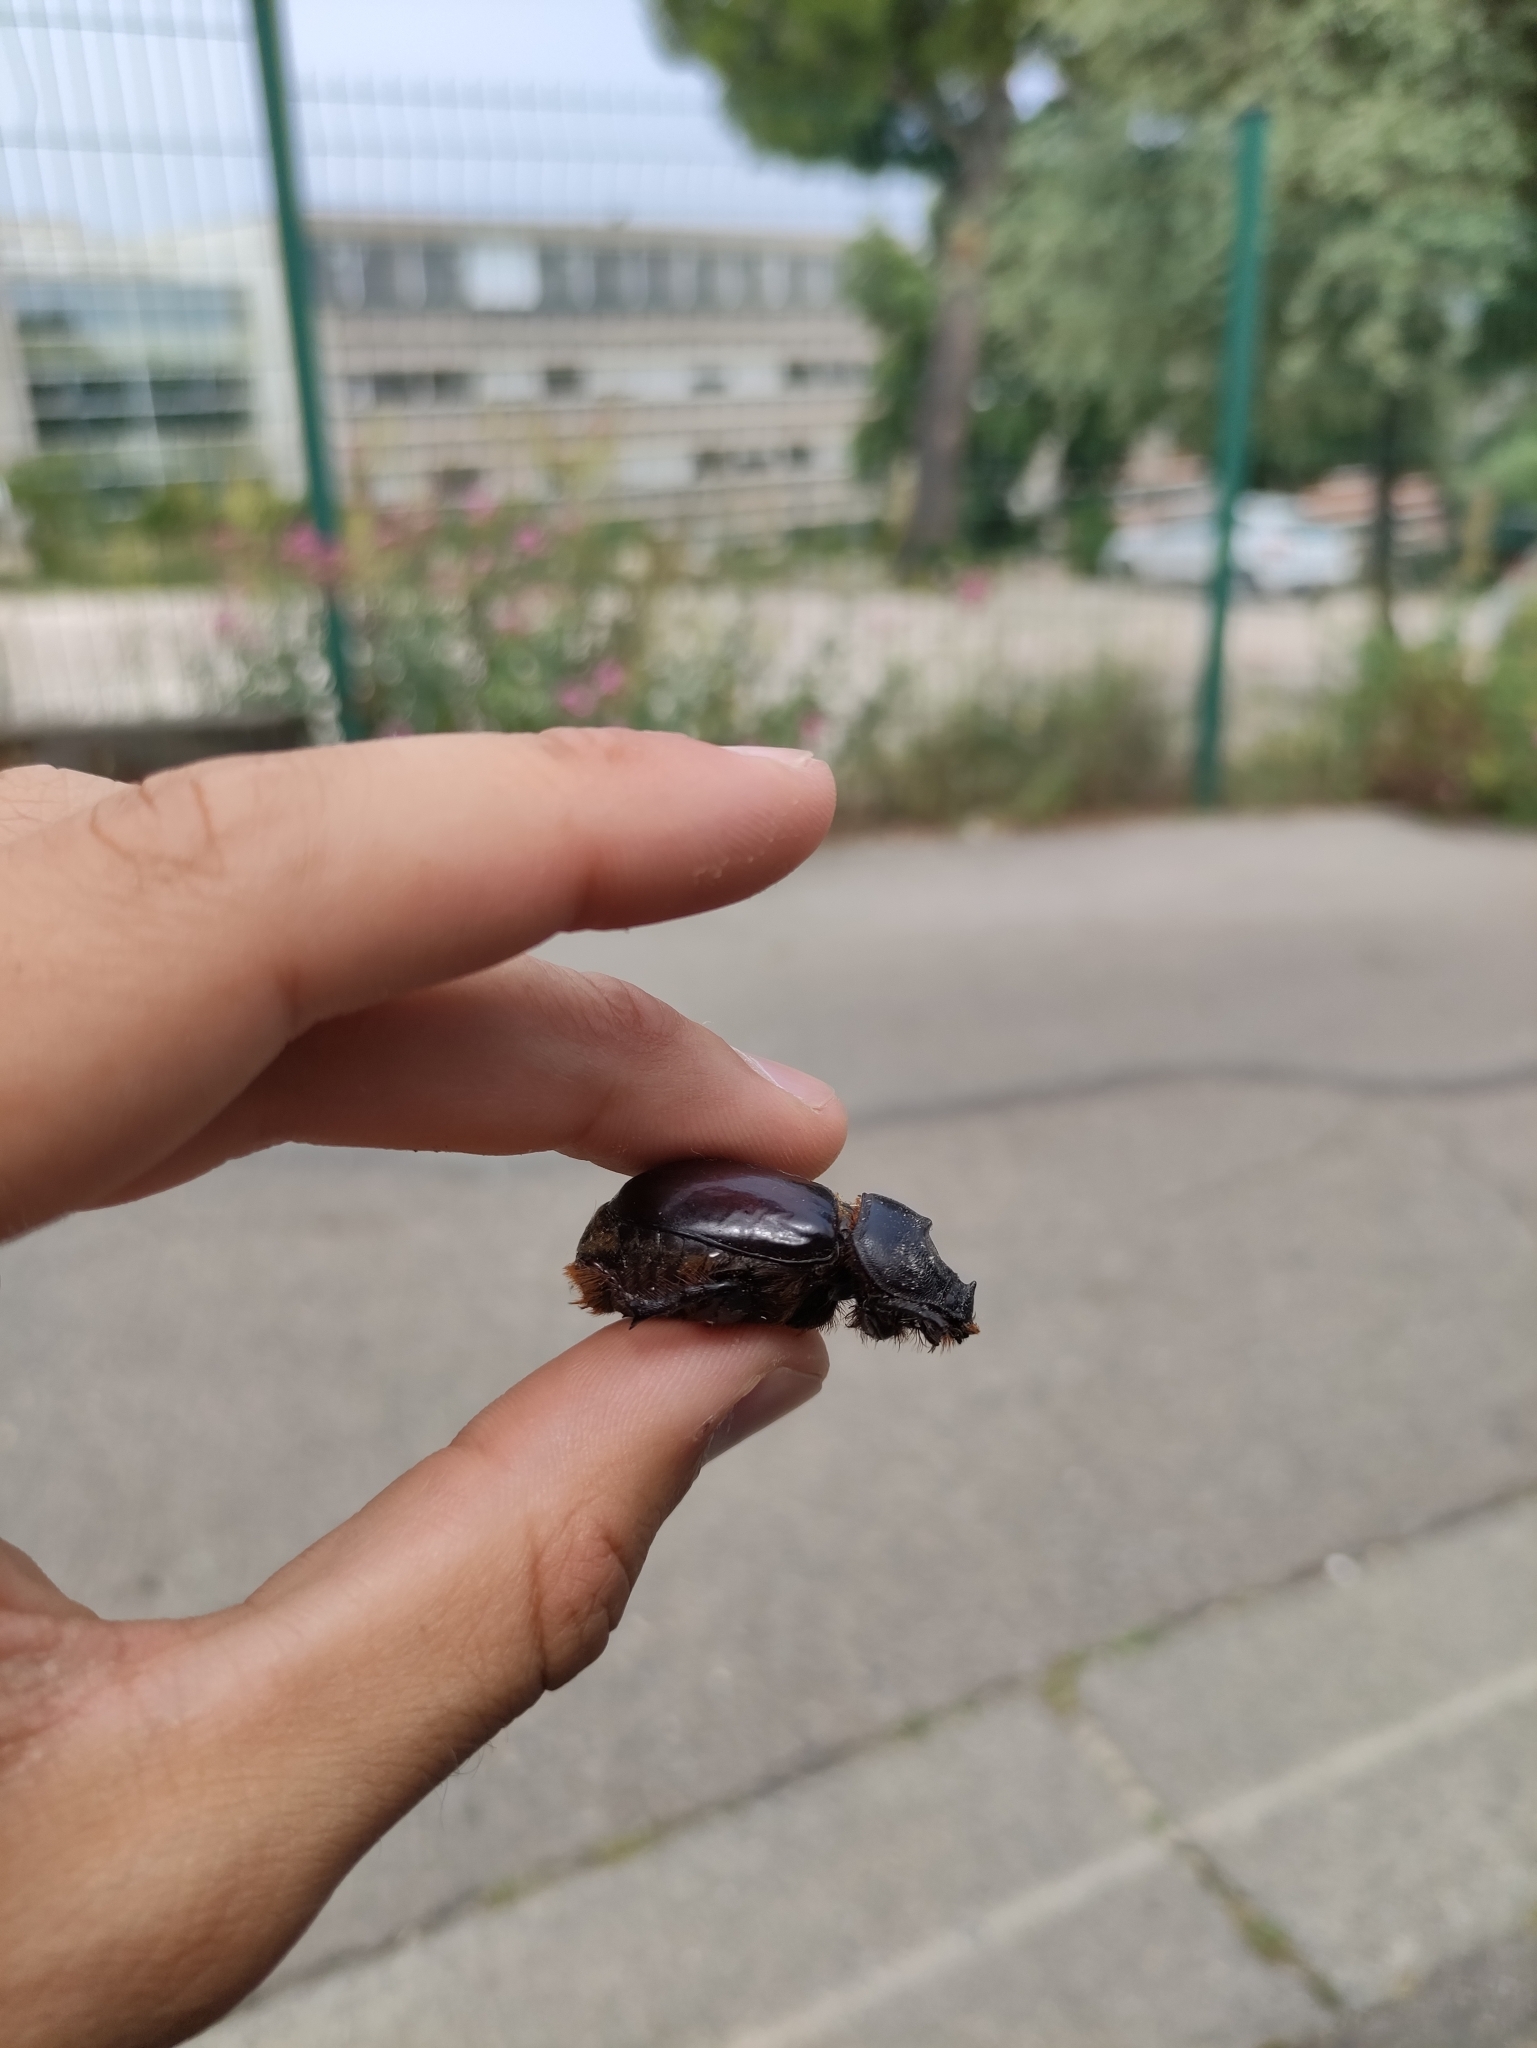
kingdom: Animalia
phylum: Arthropoda
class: Insecta
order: Coleoptera
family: Scarabaeidae
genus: Oryctes
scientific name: Oryctes nasicornis
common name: European rhinoceros beetle
